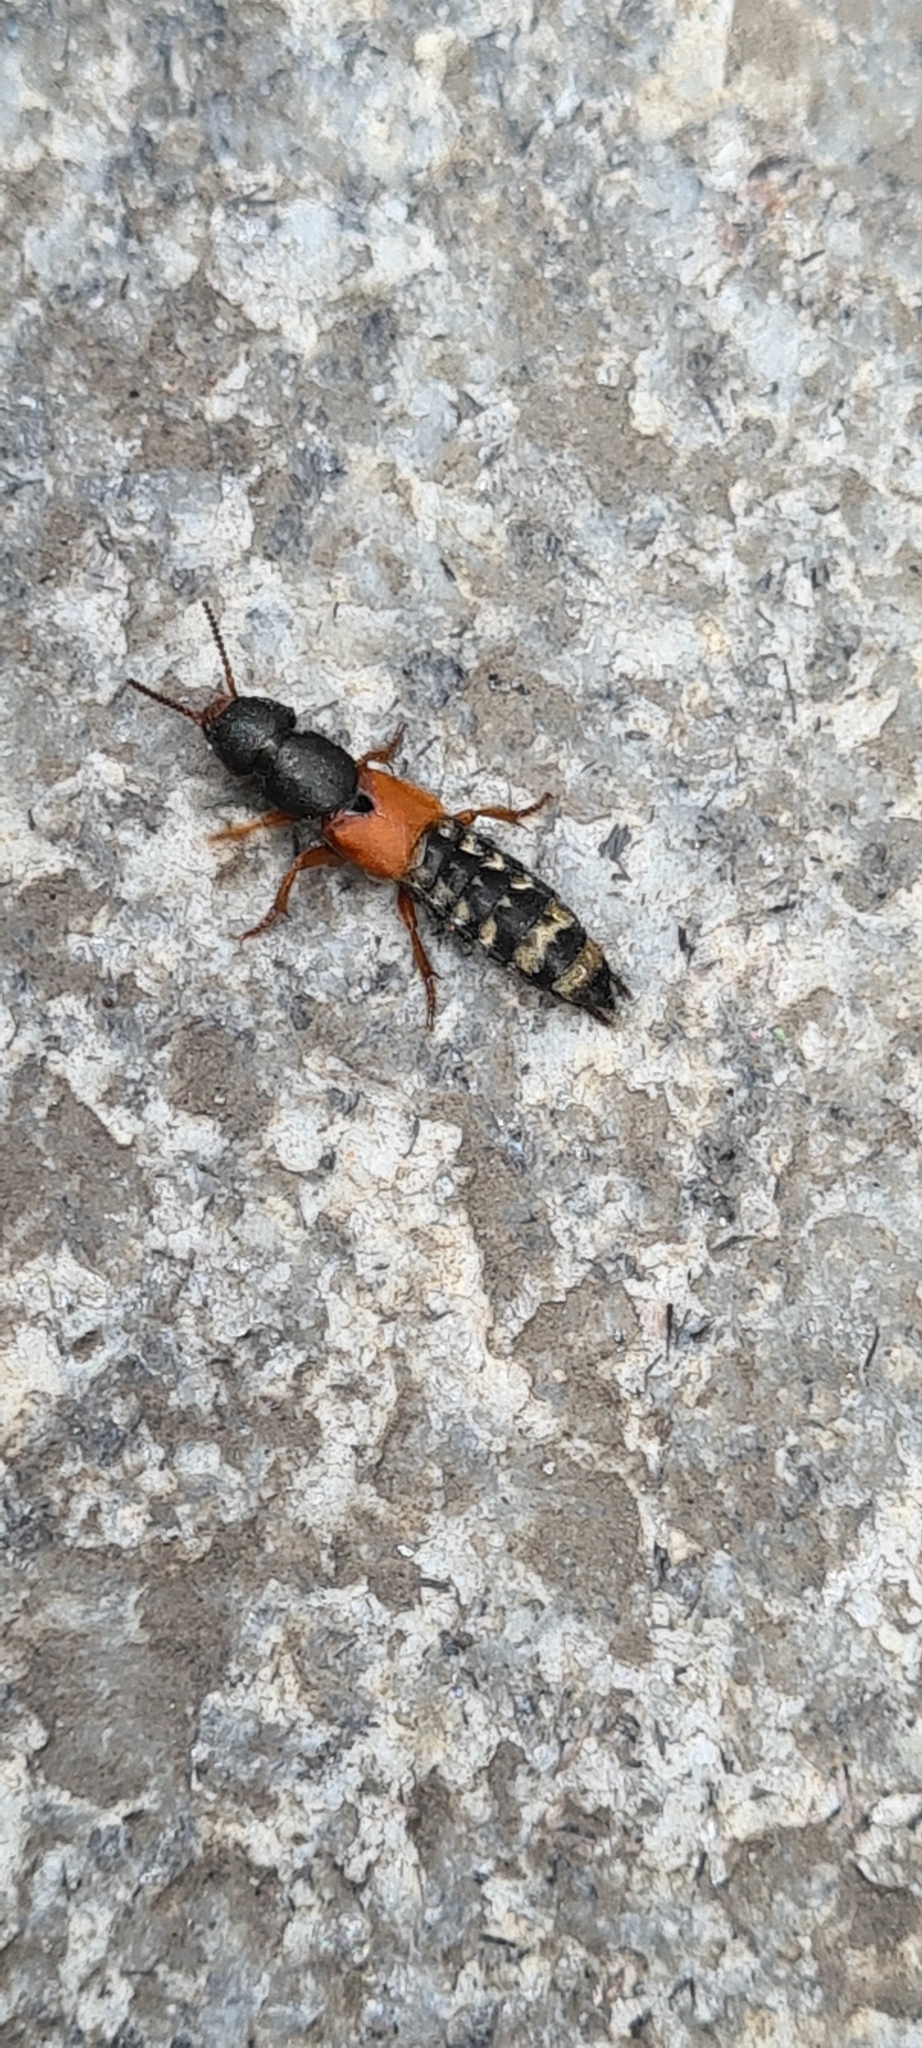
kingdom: Animalia
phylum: Arthropoda
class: Insecta
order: Coleoptera
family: Staphylinidae
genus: Platydracus
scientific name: Platydracus stercorarius
